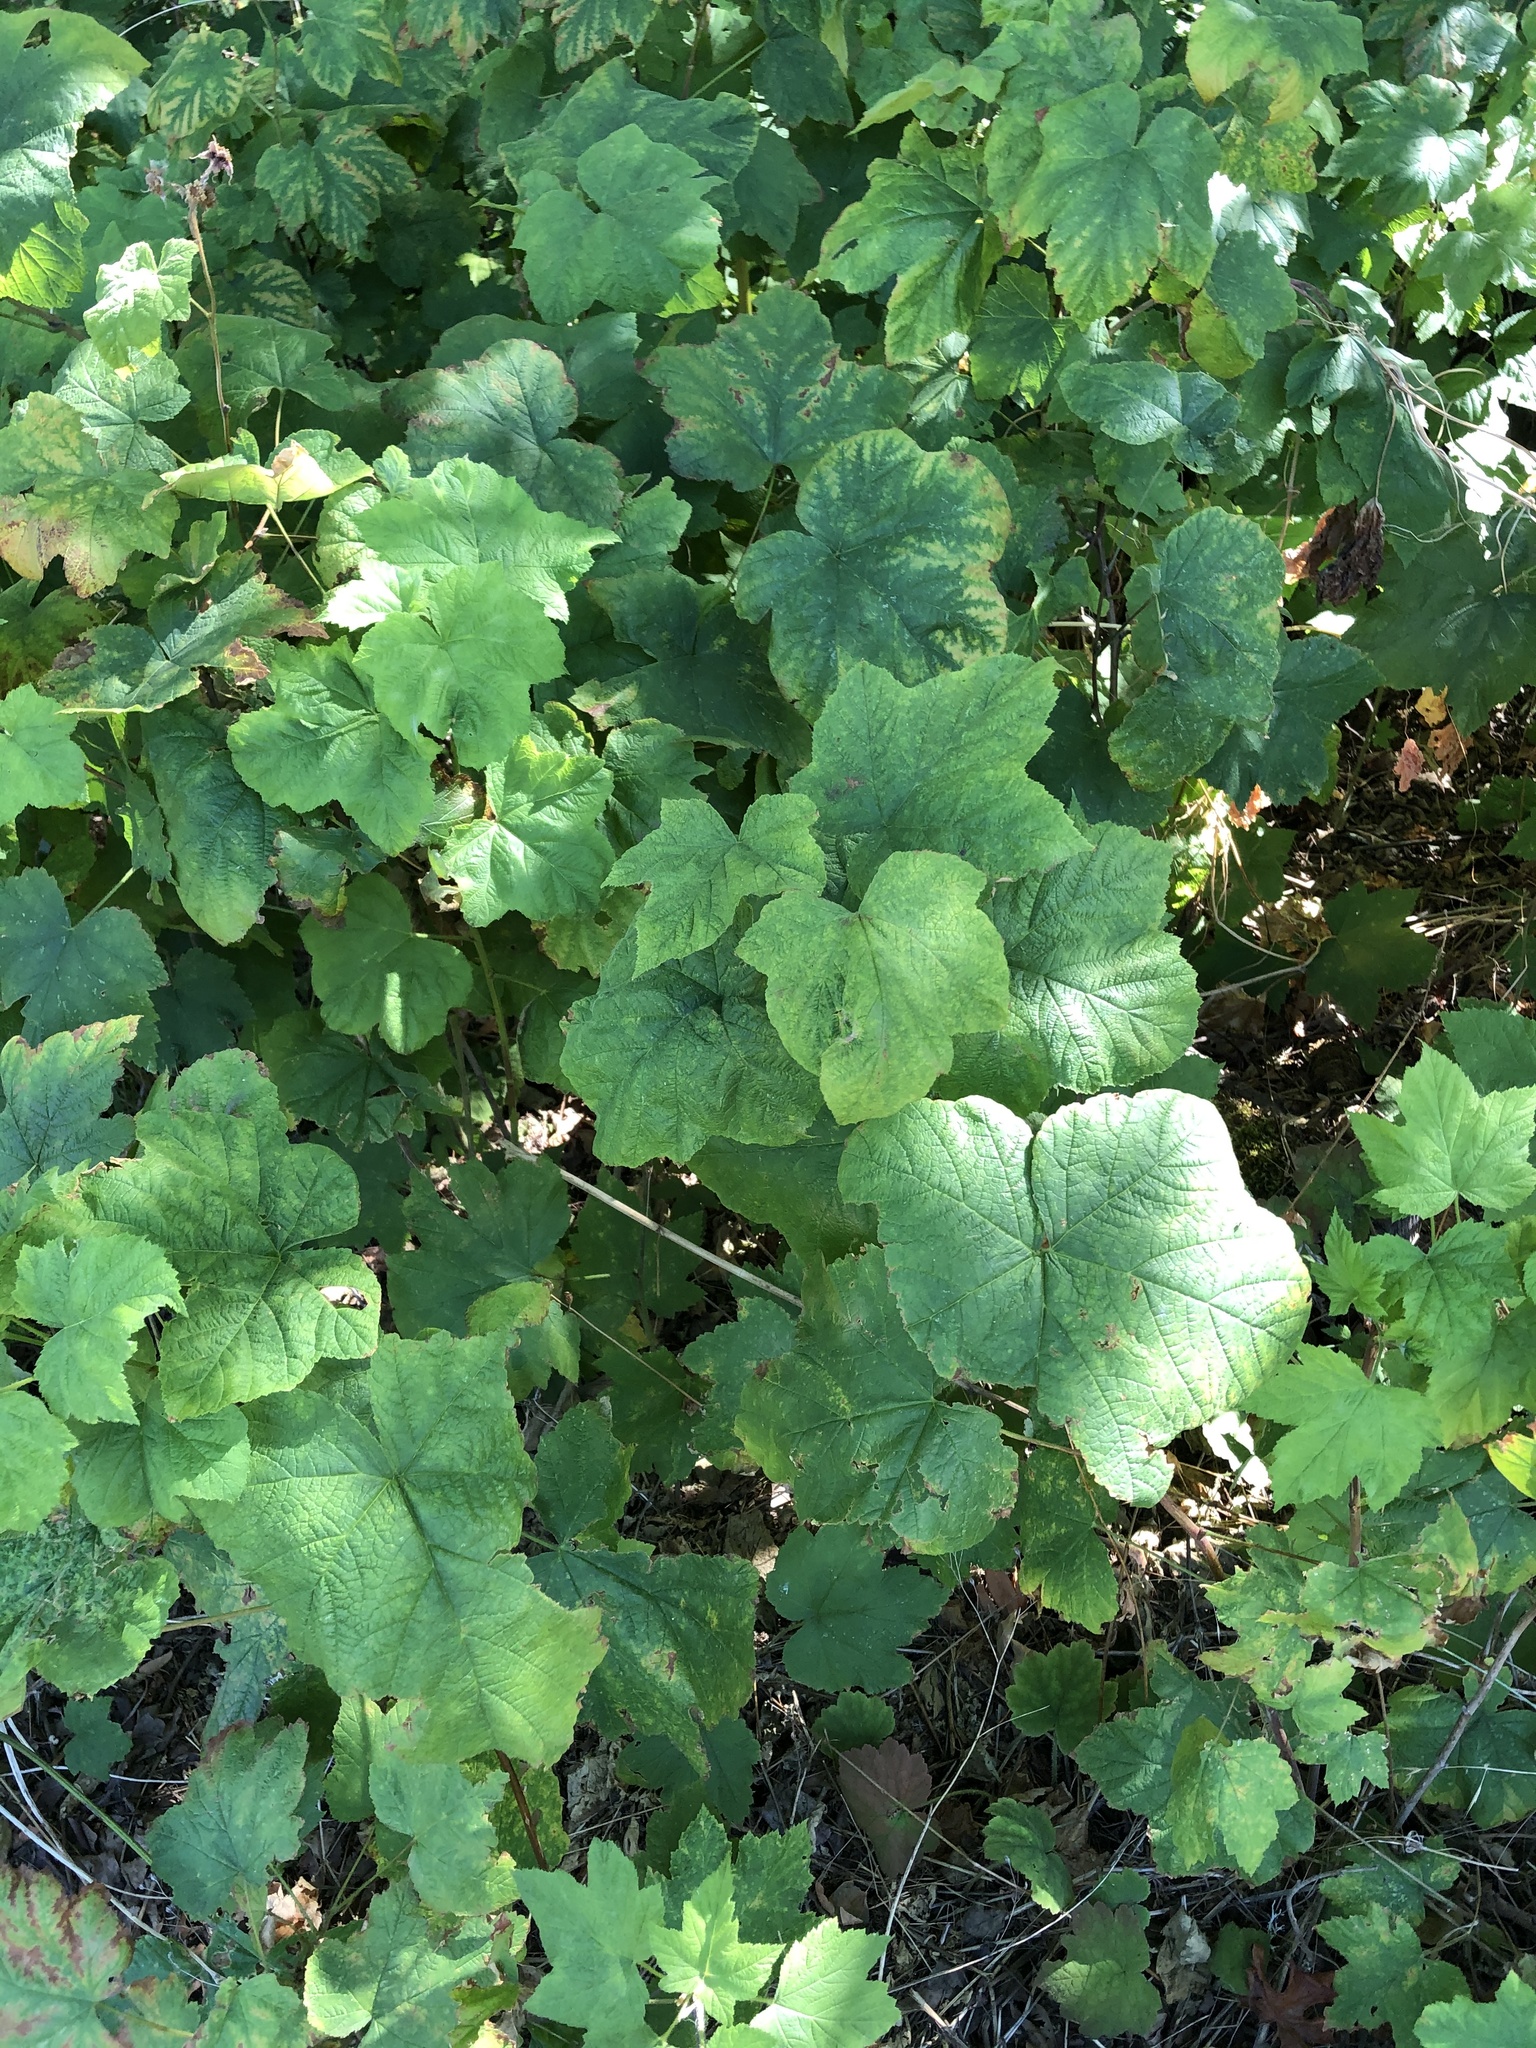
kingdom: Plantae
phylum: Tracheophyta
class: Magnoliopsida
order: Rosales
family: Rosaceae
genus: Rubus
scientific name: Rubus parviflorus
